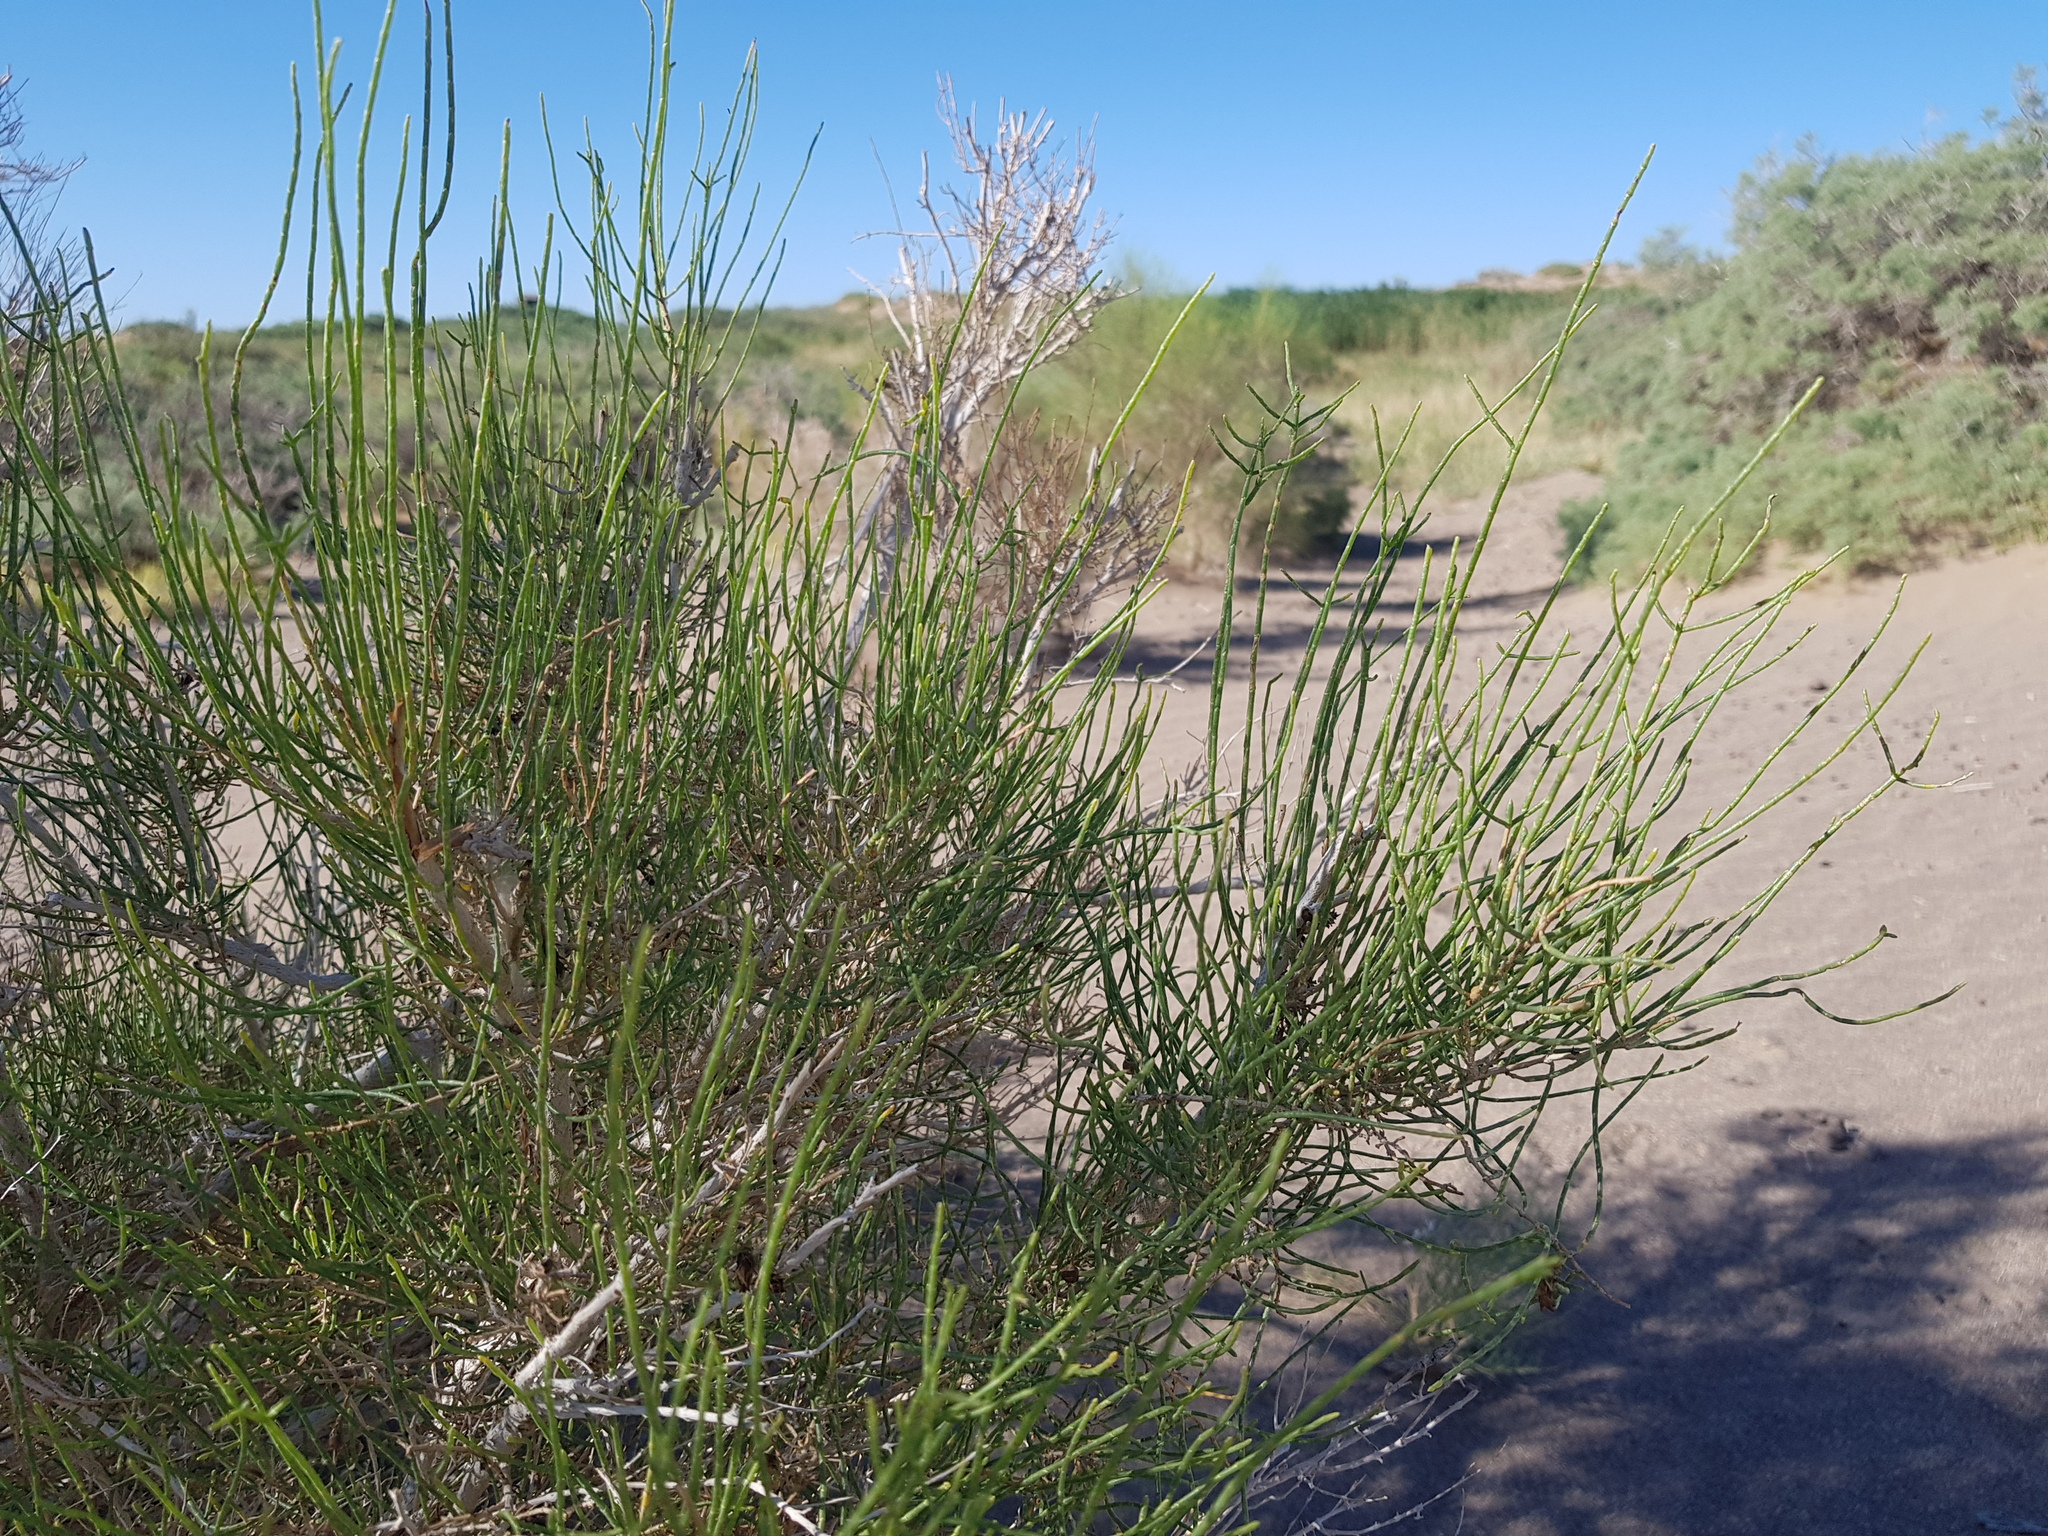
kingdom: Plantae
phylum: Tracheophyta
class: Magnoliopsida
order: Caryophyllales
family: Amaranthaceae
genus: Haloxylon
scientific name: Haloxylon ammodendron
